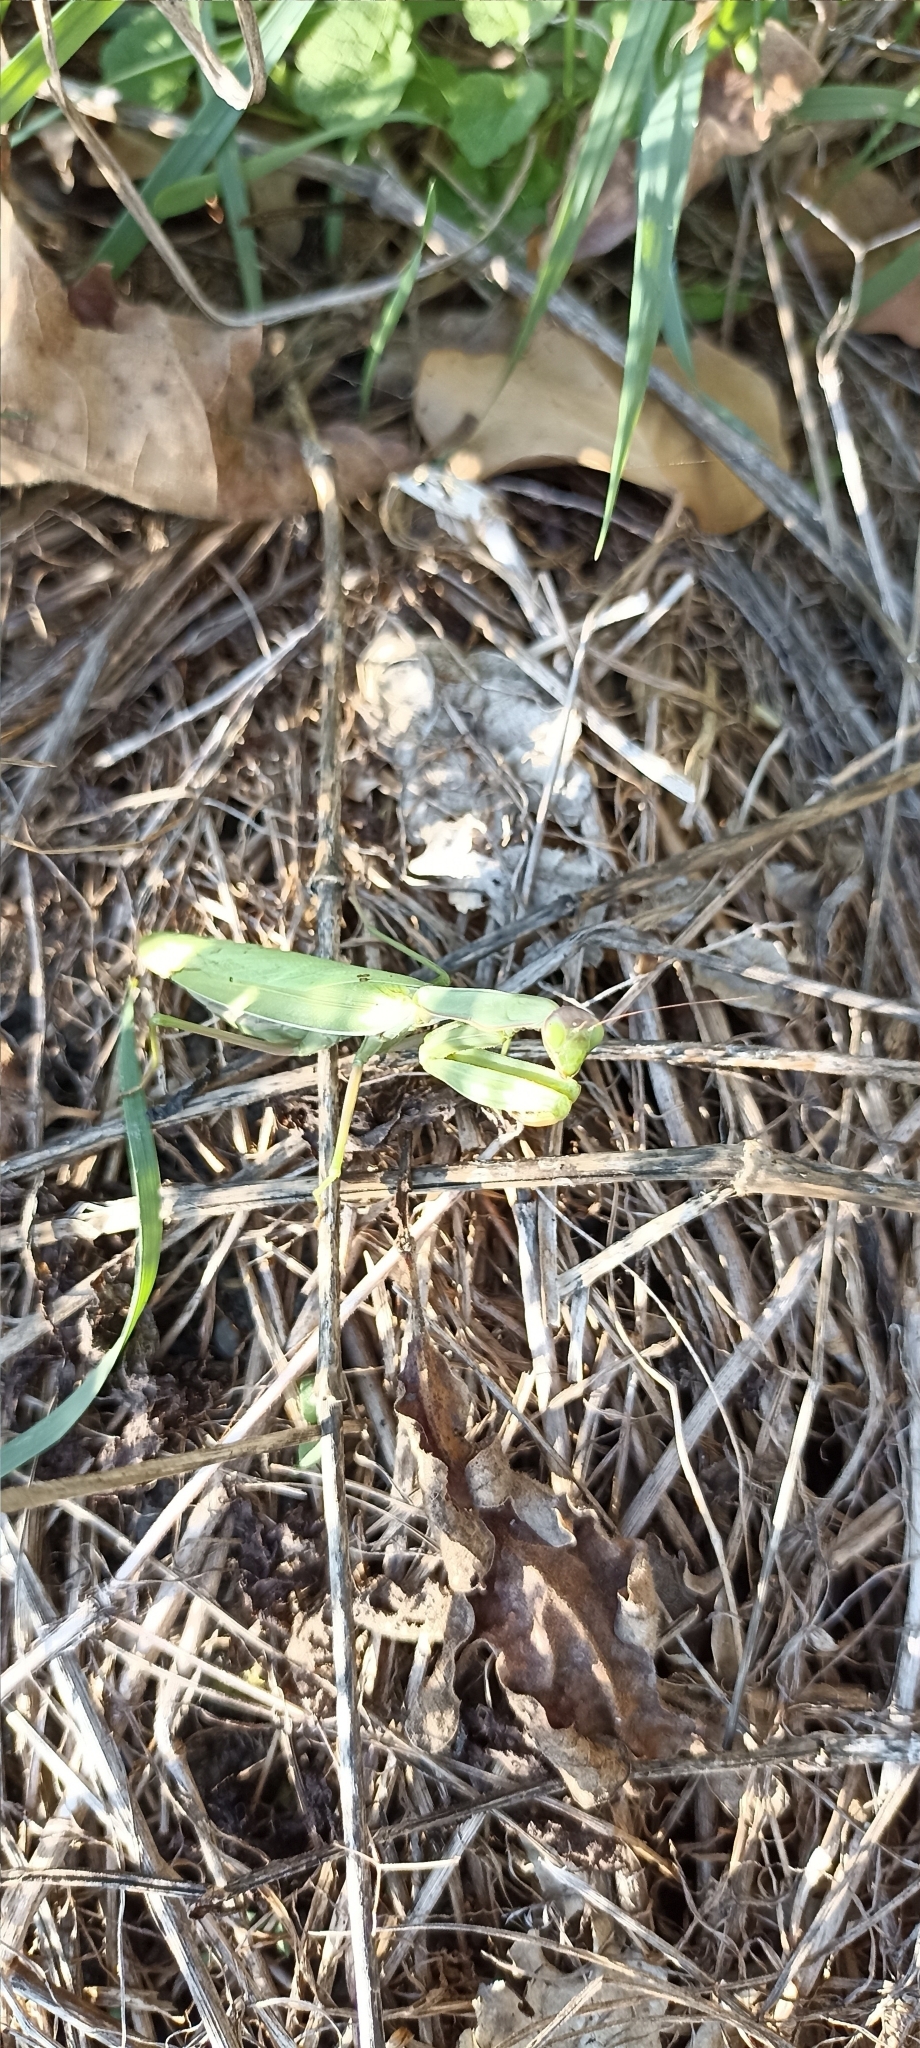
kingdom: Animalia
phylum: Arthropoda
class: Insecta
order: Mantodea
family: Mantidae
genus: Mantis
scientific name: Mantis religiosa
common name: Praying mantis
